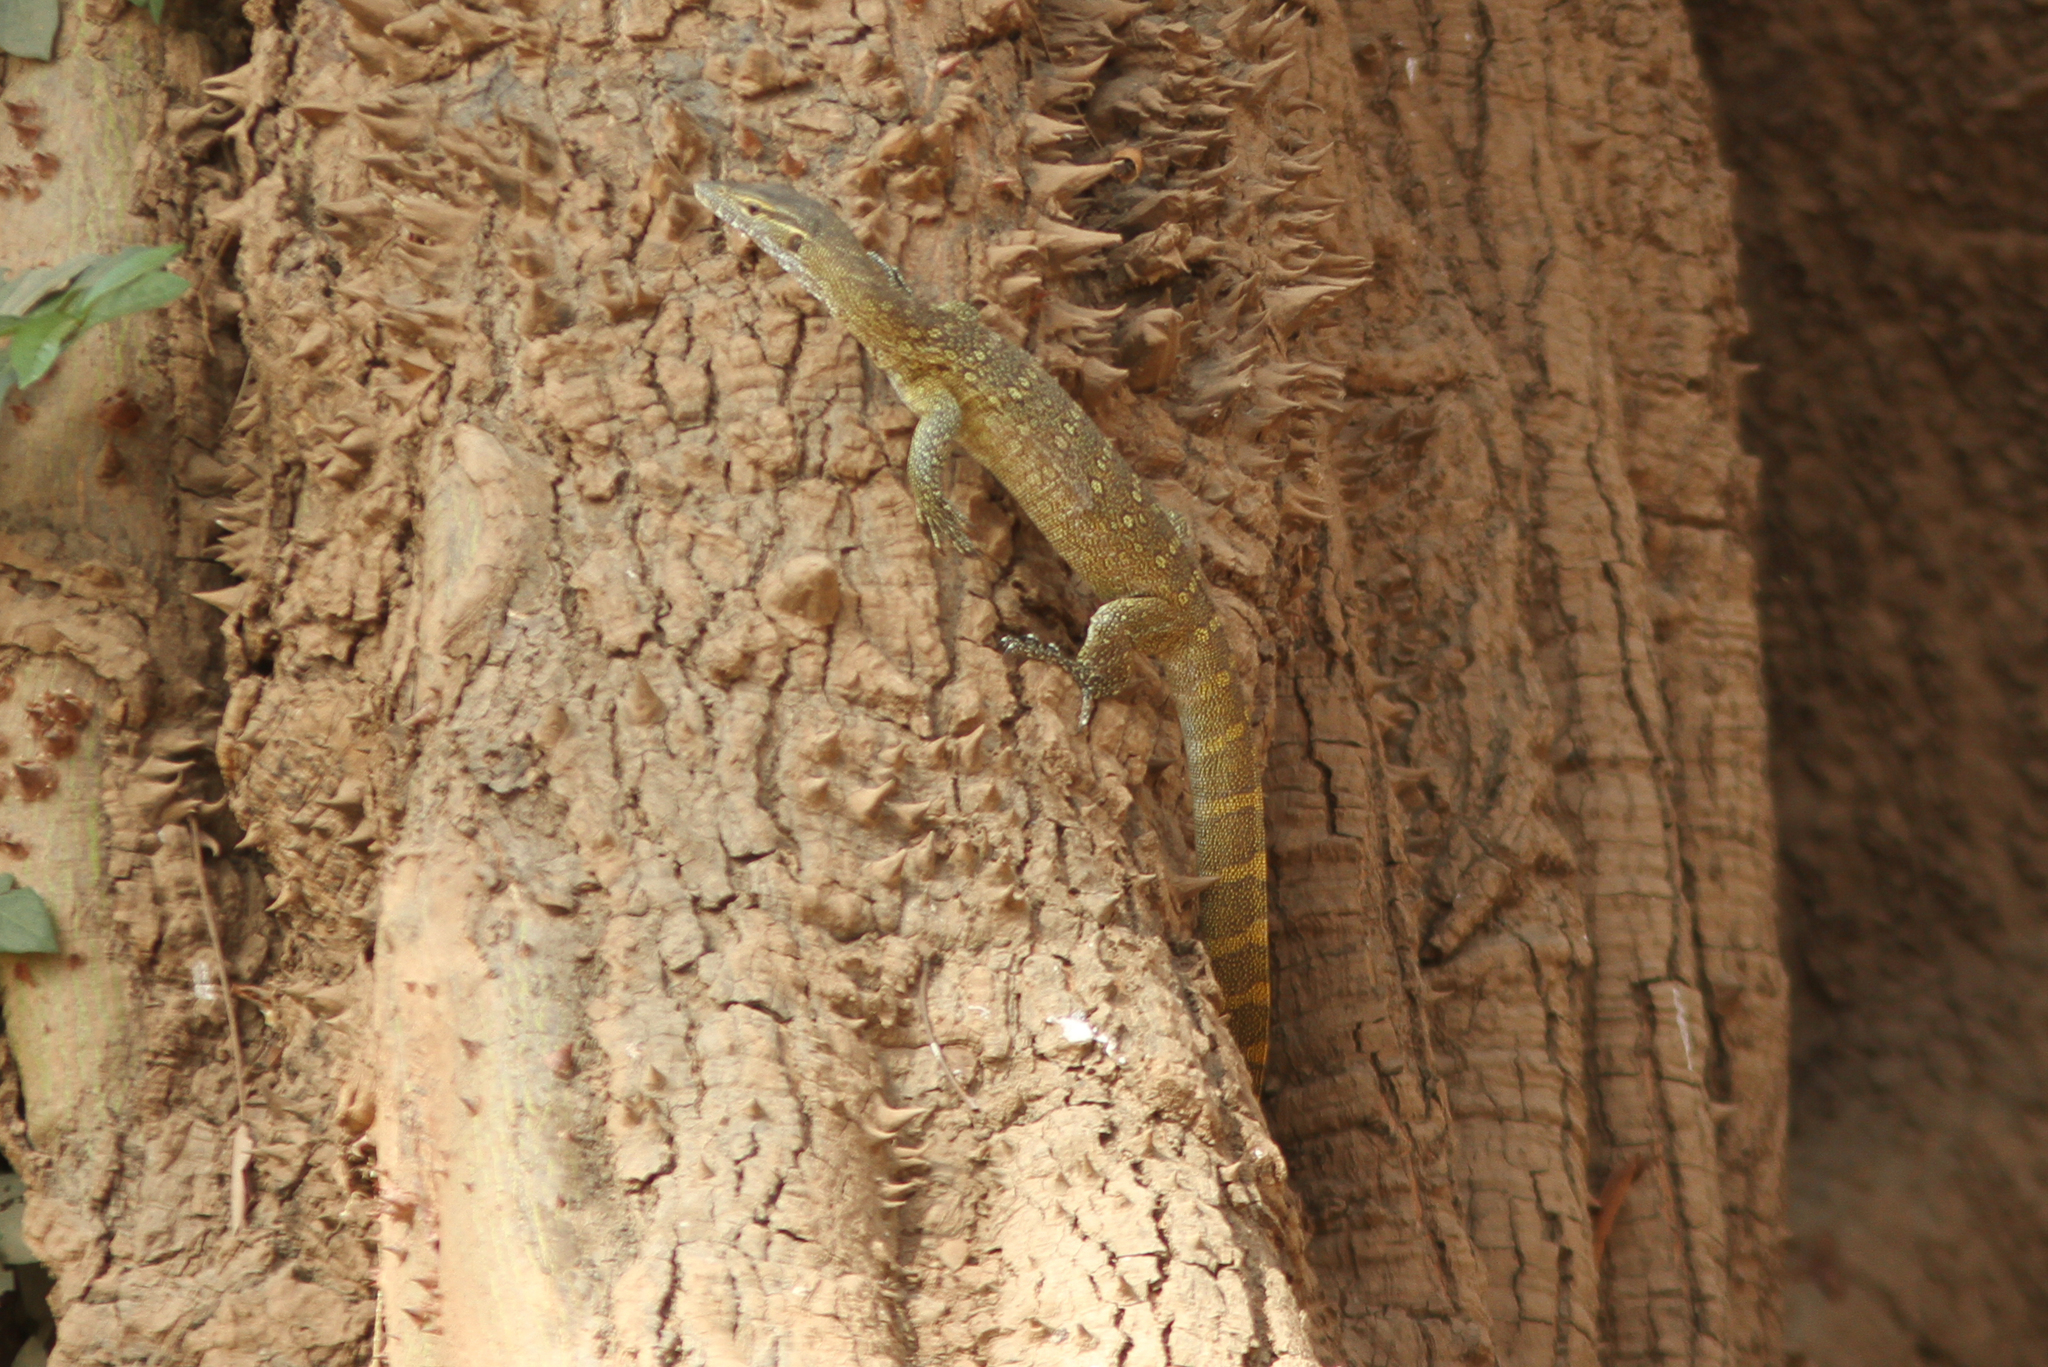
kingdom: Animalia
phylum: Chordata
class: Squamata
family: Varanidae
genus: Varanus
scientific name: Varanus niloticus
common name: Nile monitor
